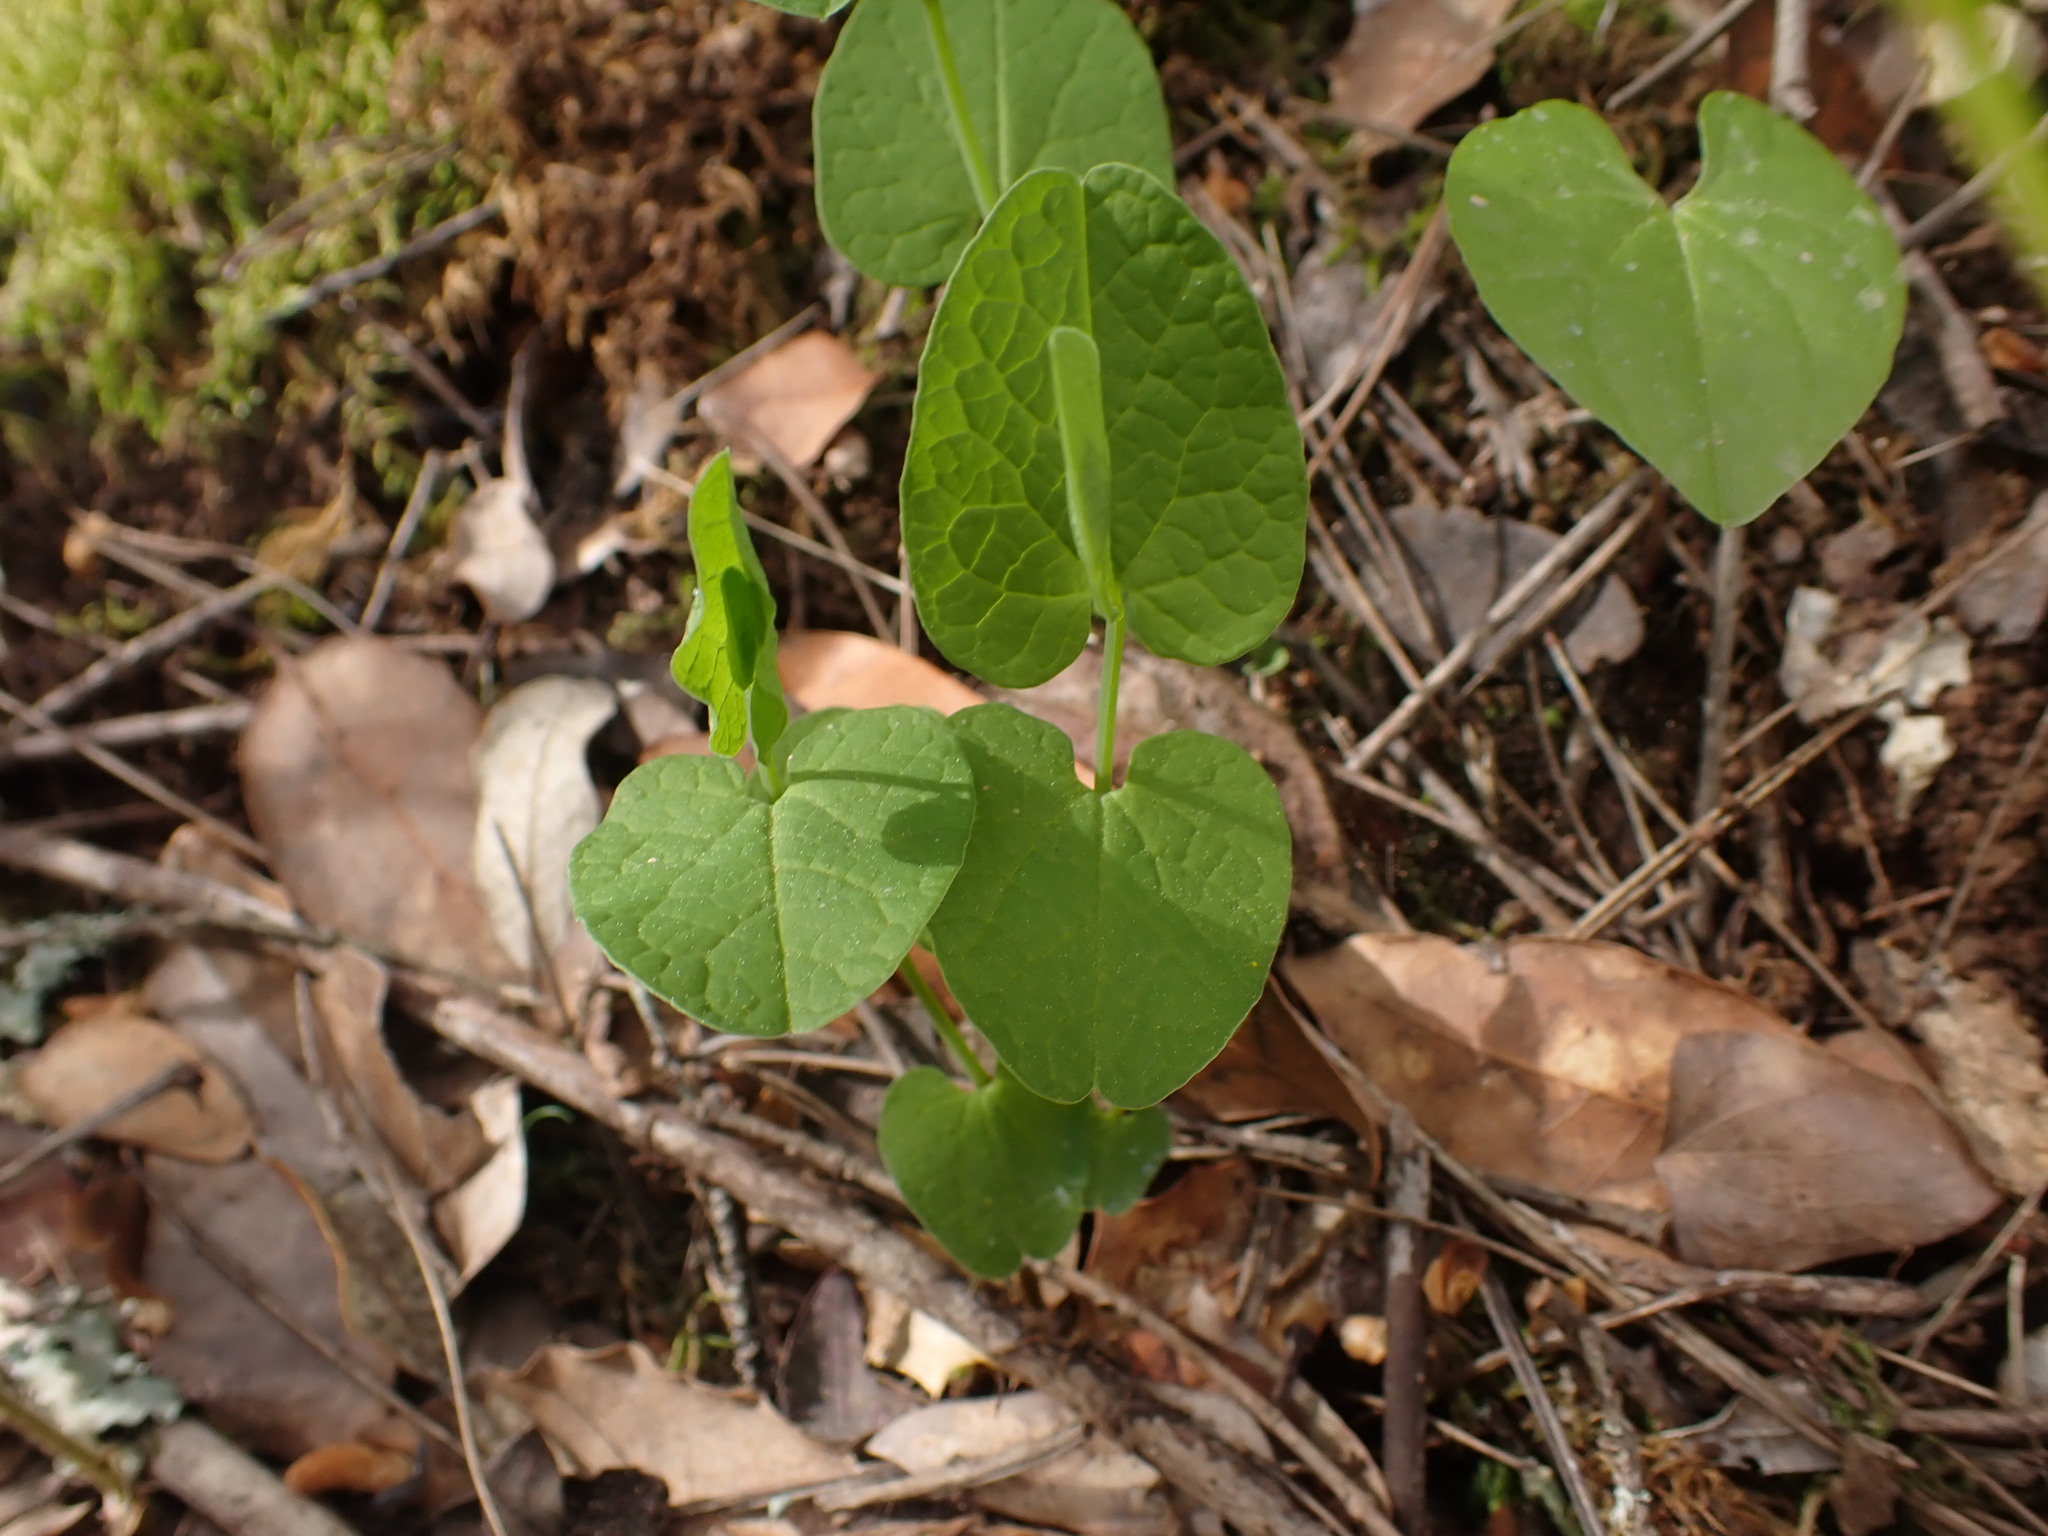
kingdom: Plantae
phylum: Tracheophyta
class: Magnoliopsida
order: Piperales
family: Aristolochiaceae
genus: Aristolochia
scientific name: Aristolochia rotunda
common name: Smearwort
